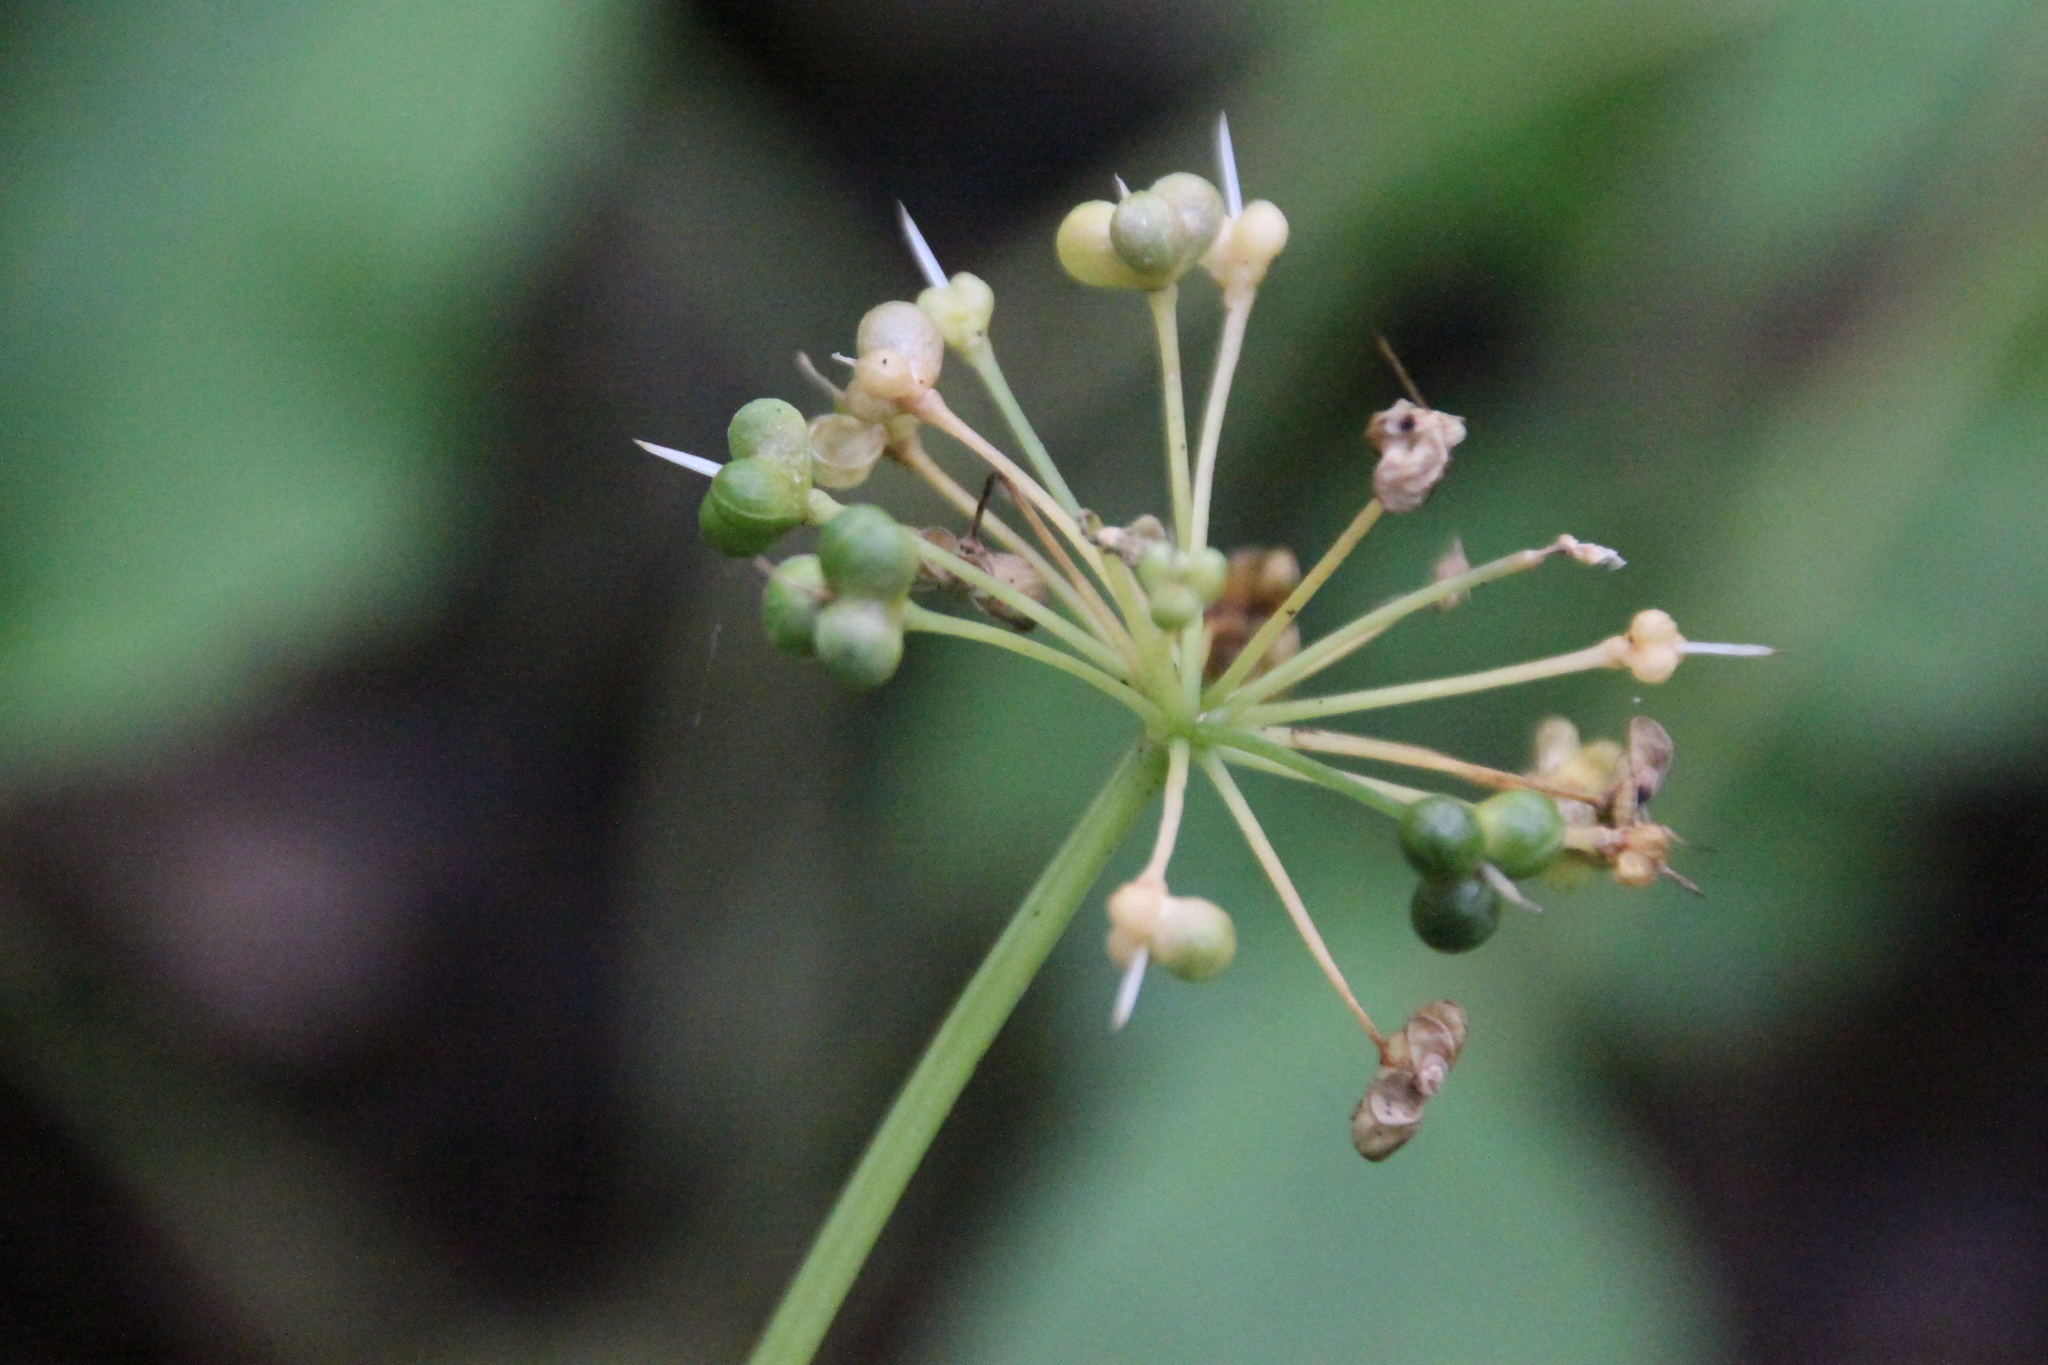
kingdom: Plantae
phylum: Tracheophyta
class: Liliopsida
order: Asparagales
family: Amaryllidaceae
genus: Allium
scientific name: Allium ursinum
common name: Ramsons
